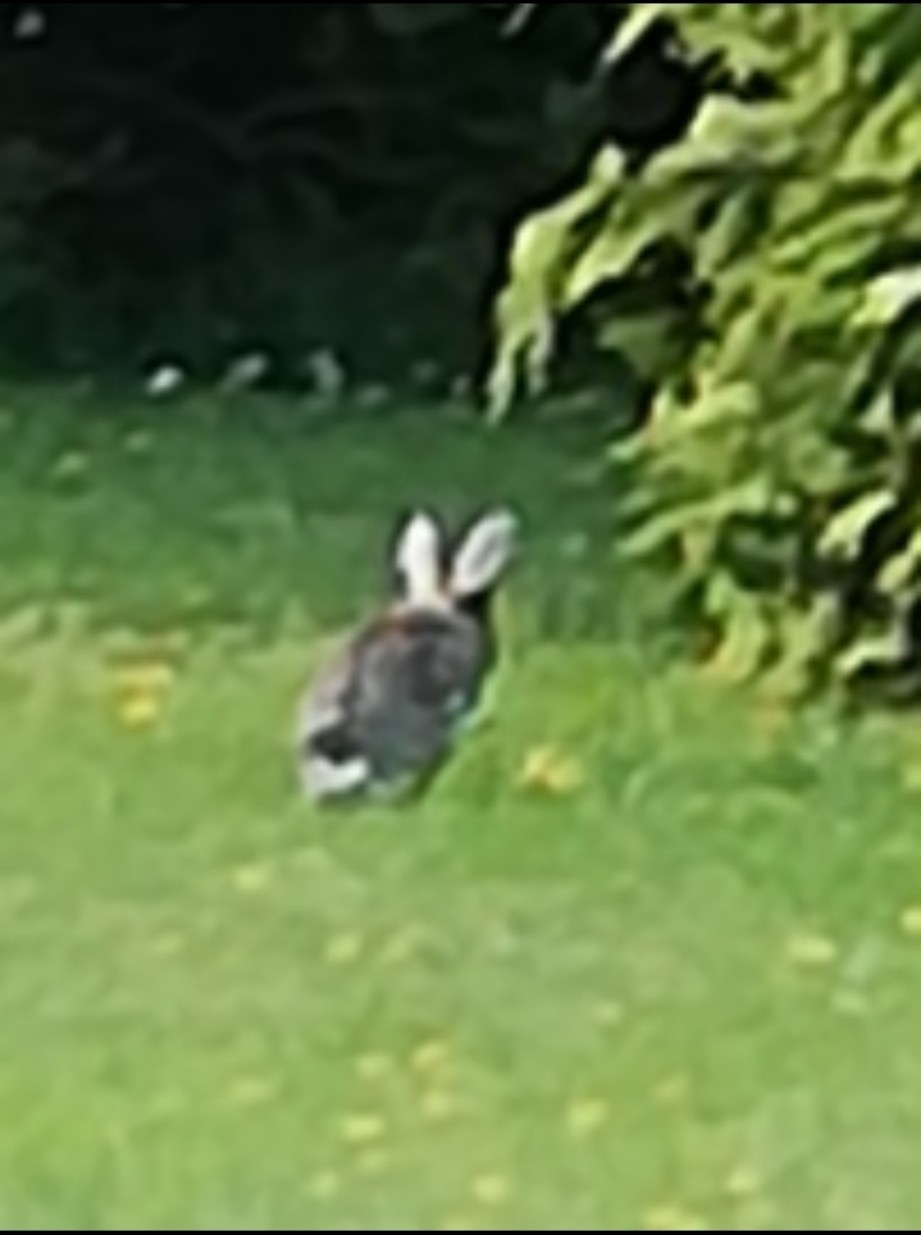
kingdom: Animalia
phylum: Chordata
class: Mammalia
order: Lagomorpha
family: Leporidae
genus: Oryctolagus
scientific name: Oryctolagus cuniculus
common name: European rabbit
